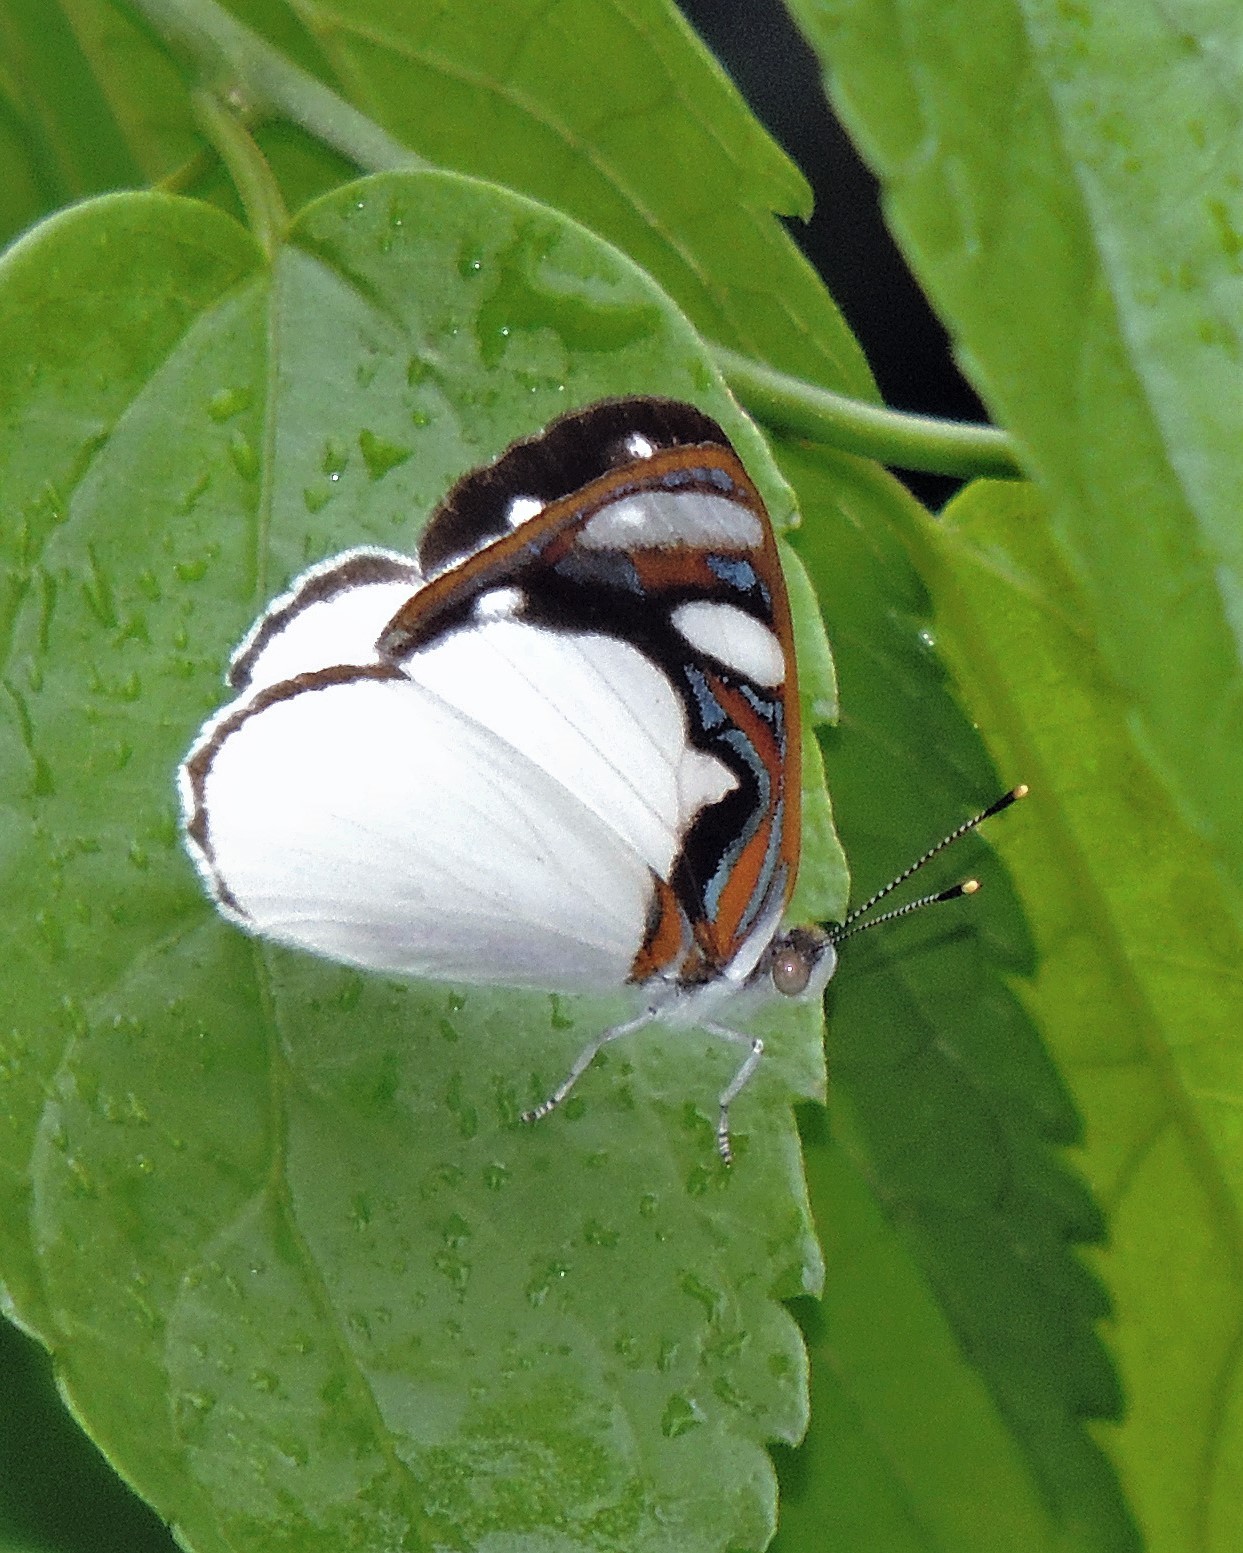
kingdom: Animalia
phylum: Arthropoda
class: Insecta
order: Lepidoptera
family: Nymphalidae
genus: Dynamine
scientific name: Dynamine coenus
